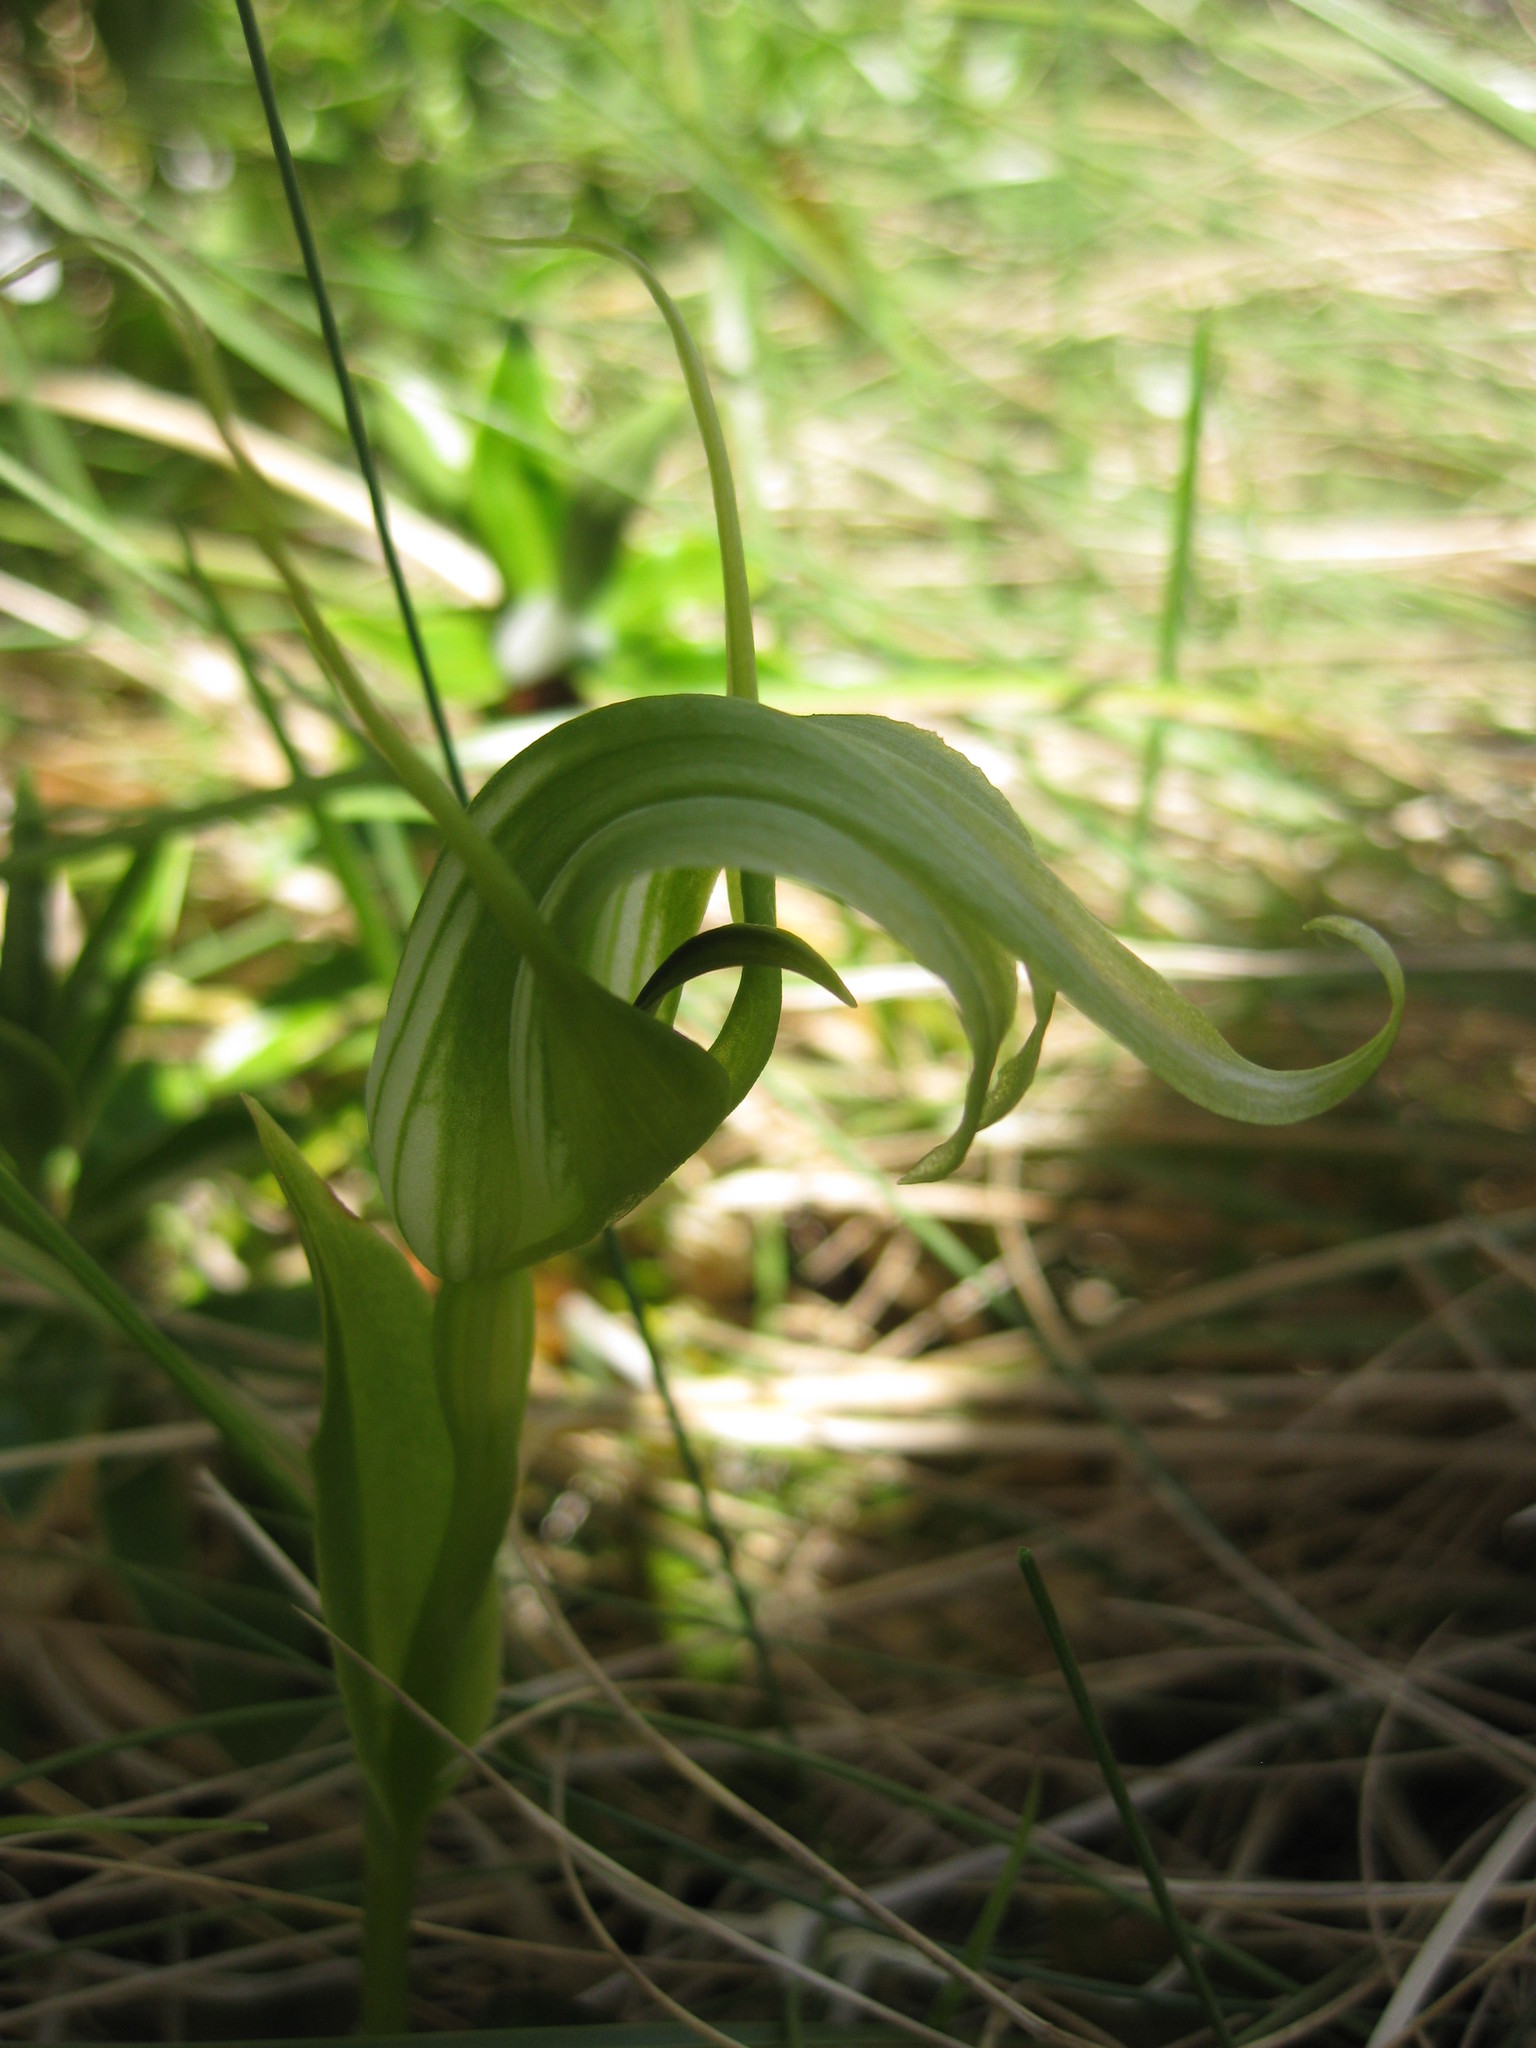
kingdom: Plantae
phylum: Tracheophyta
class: Liliopsida
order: Asparagales
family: Orchidaceae
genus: Pterostylis
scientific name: Pterostylis oliveri
